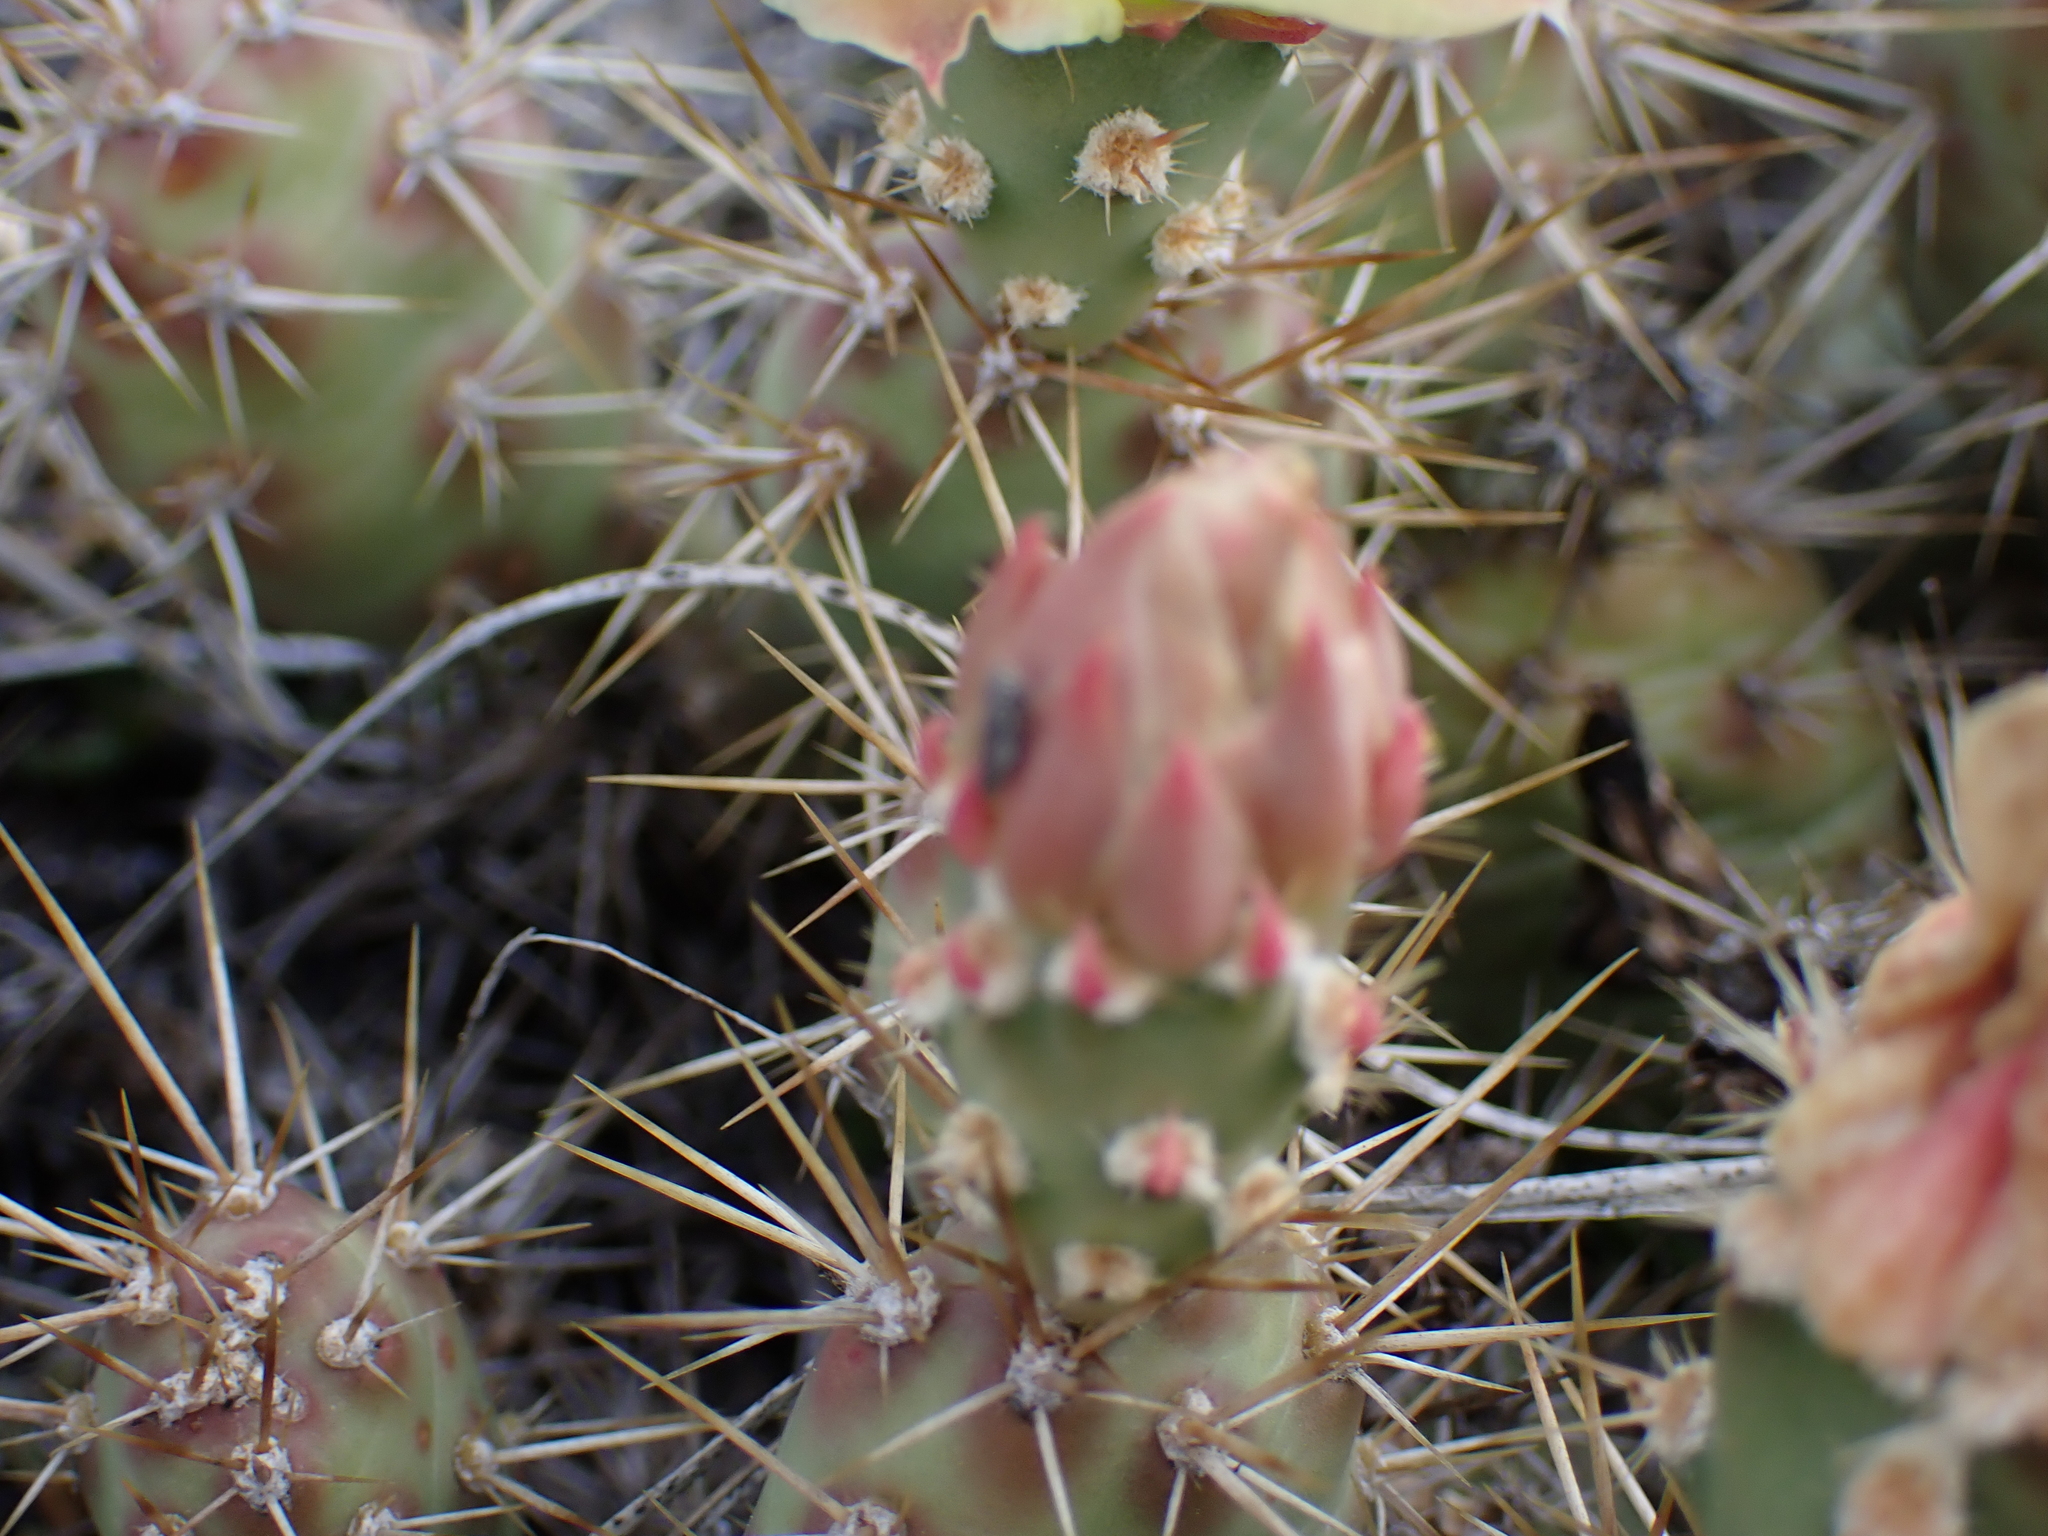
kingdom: Plantae
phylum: Tracheophyta
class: Magnoliopsida
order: Caryophyllales
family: Cactaceae
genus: Opuntia
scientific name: Opuntia fragilis
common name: Brittle cactus
